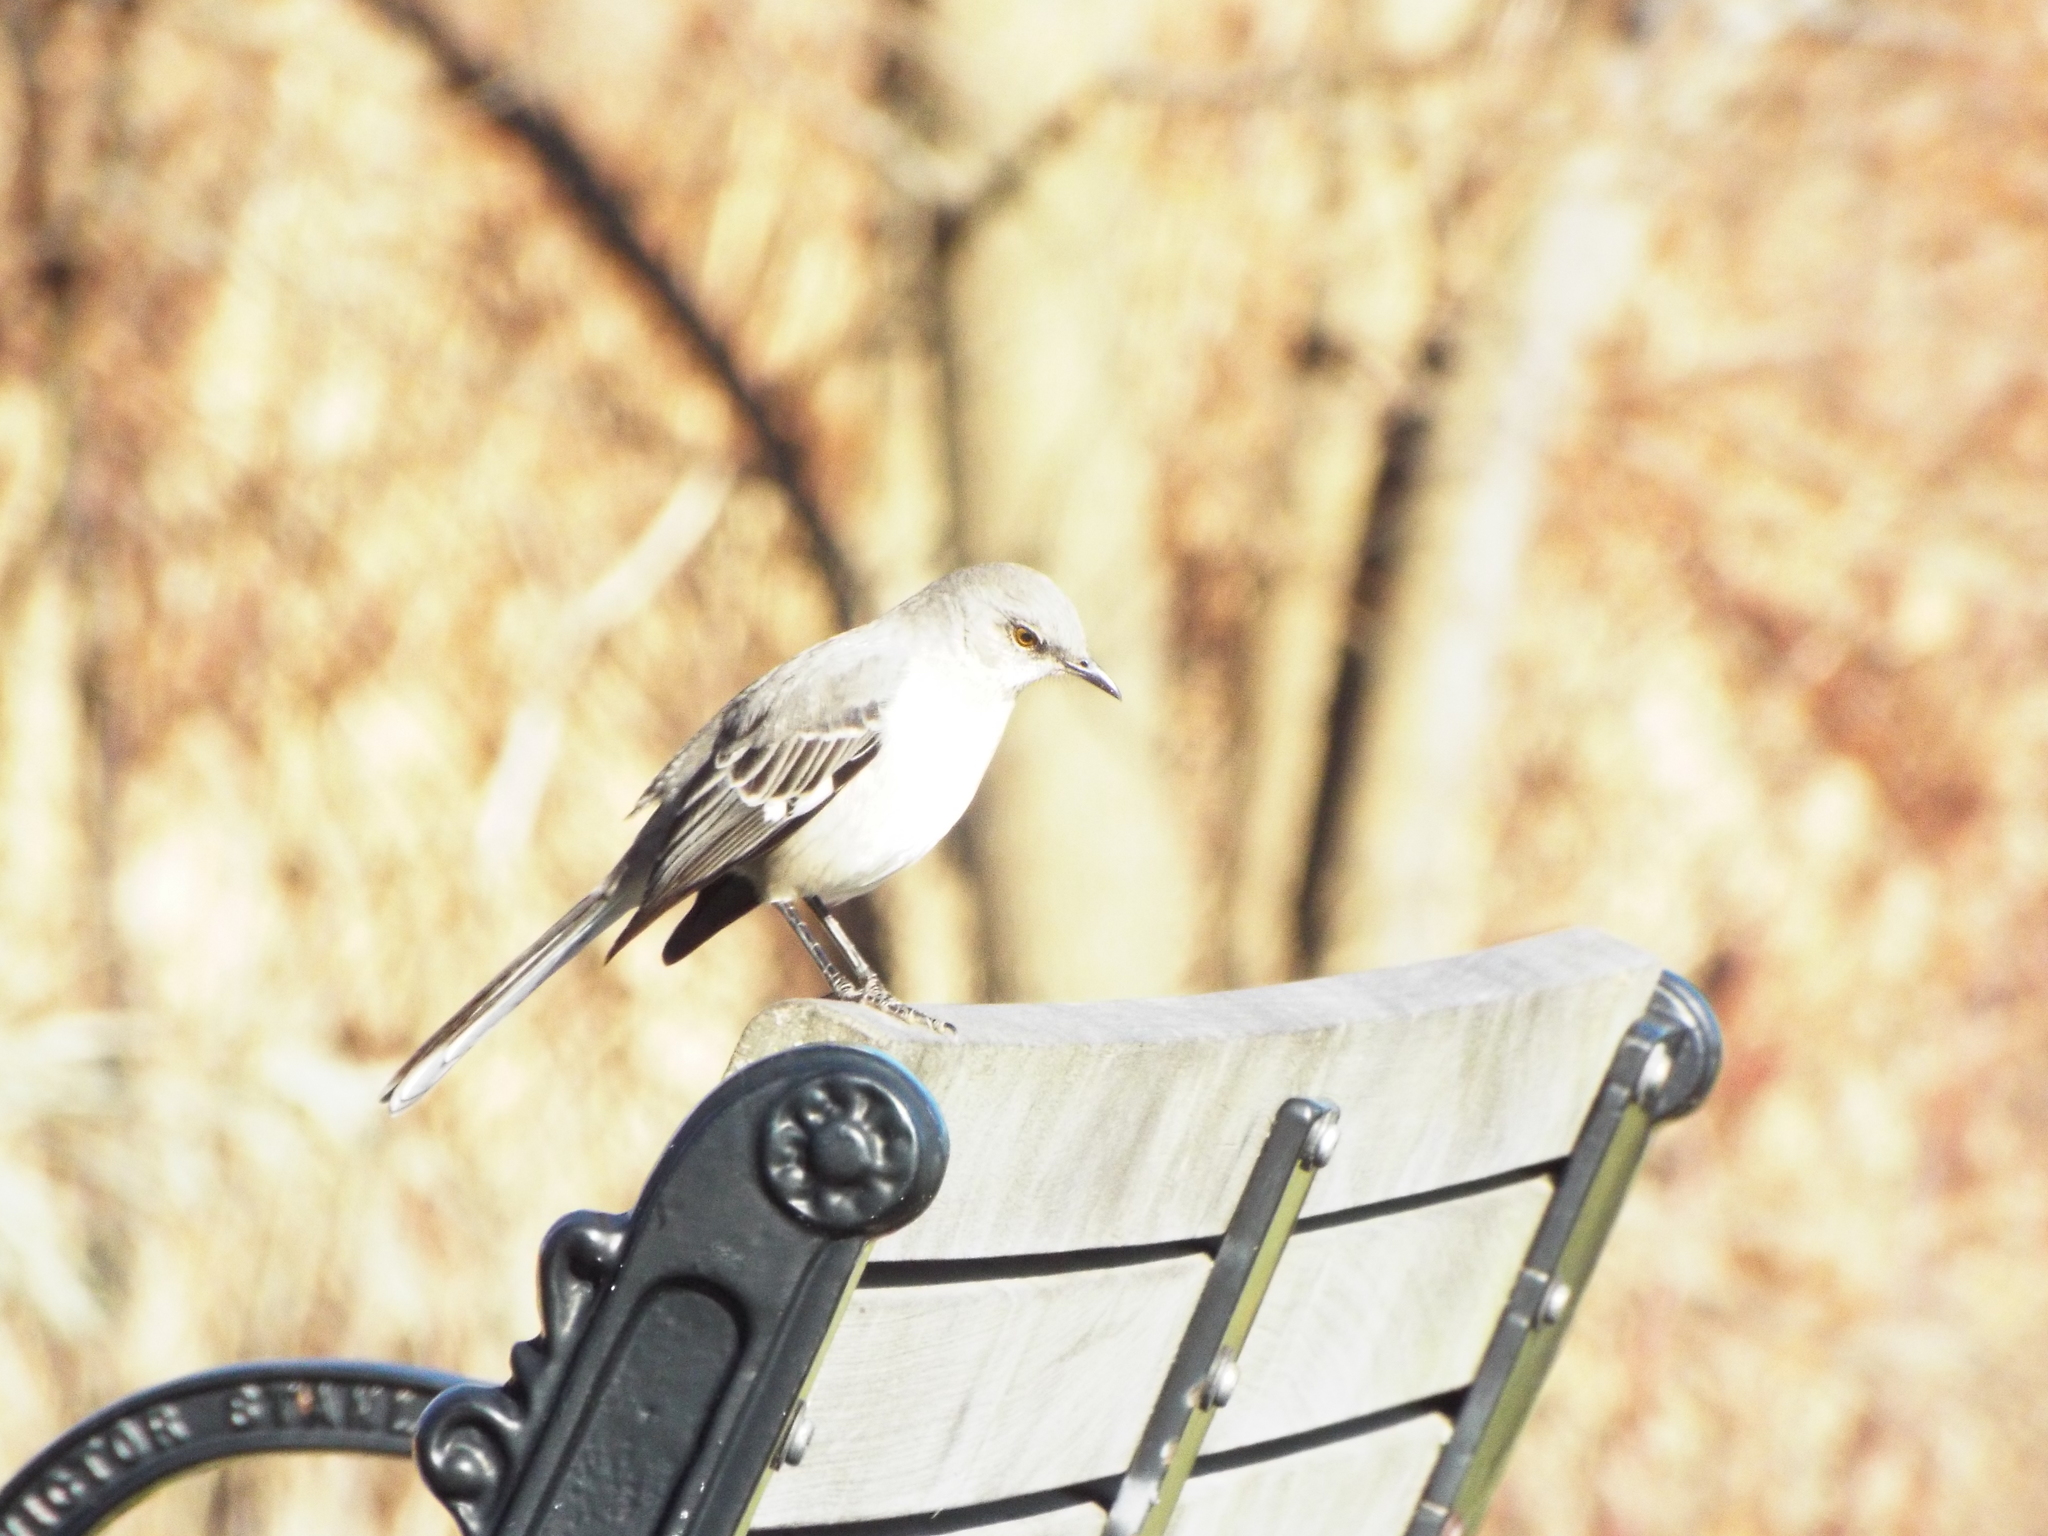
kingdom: Animalia
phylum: Chordata
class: Aves
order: Passeriformes
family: Mimidae
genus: Mimus
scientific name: Mimus polyglottos
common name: Northern mockingbird
